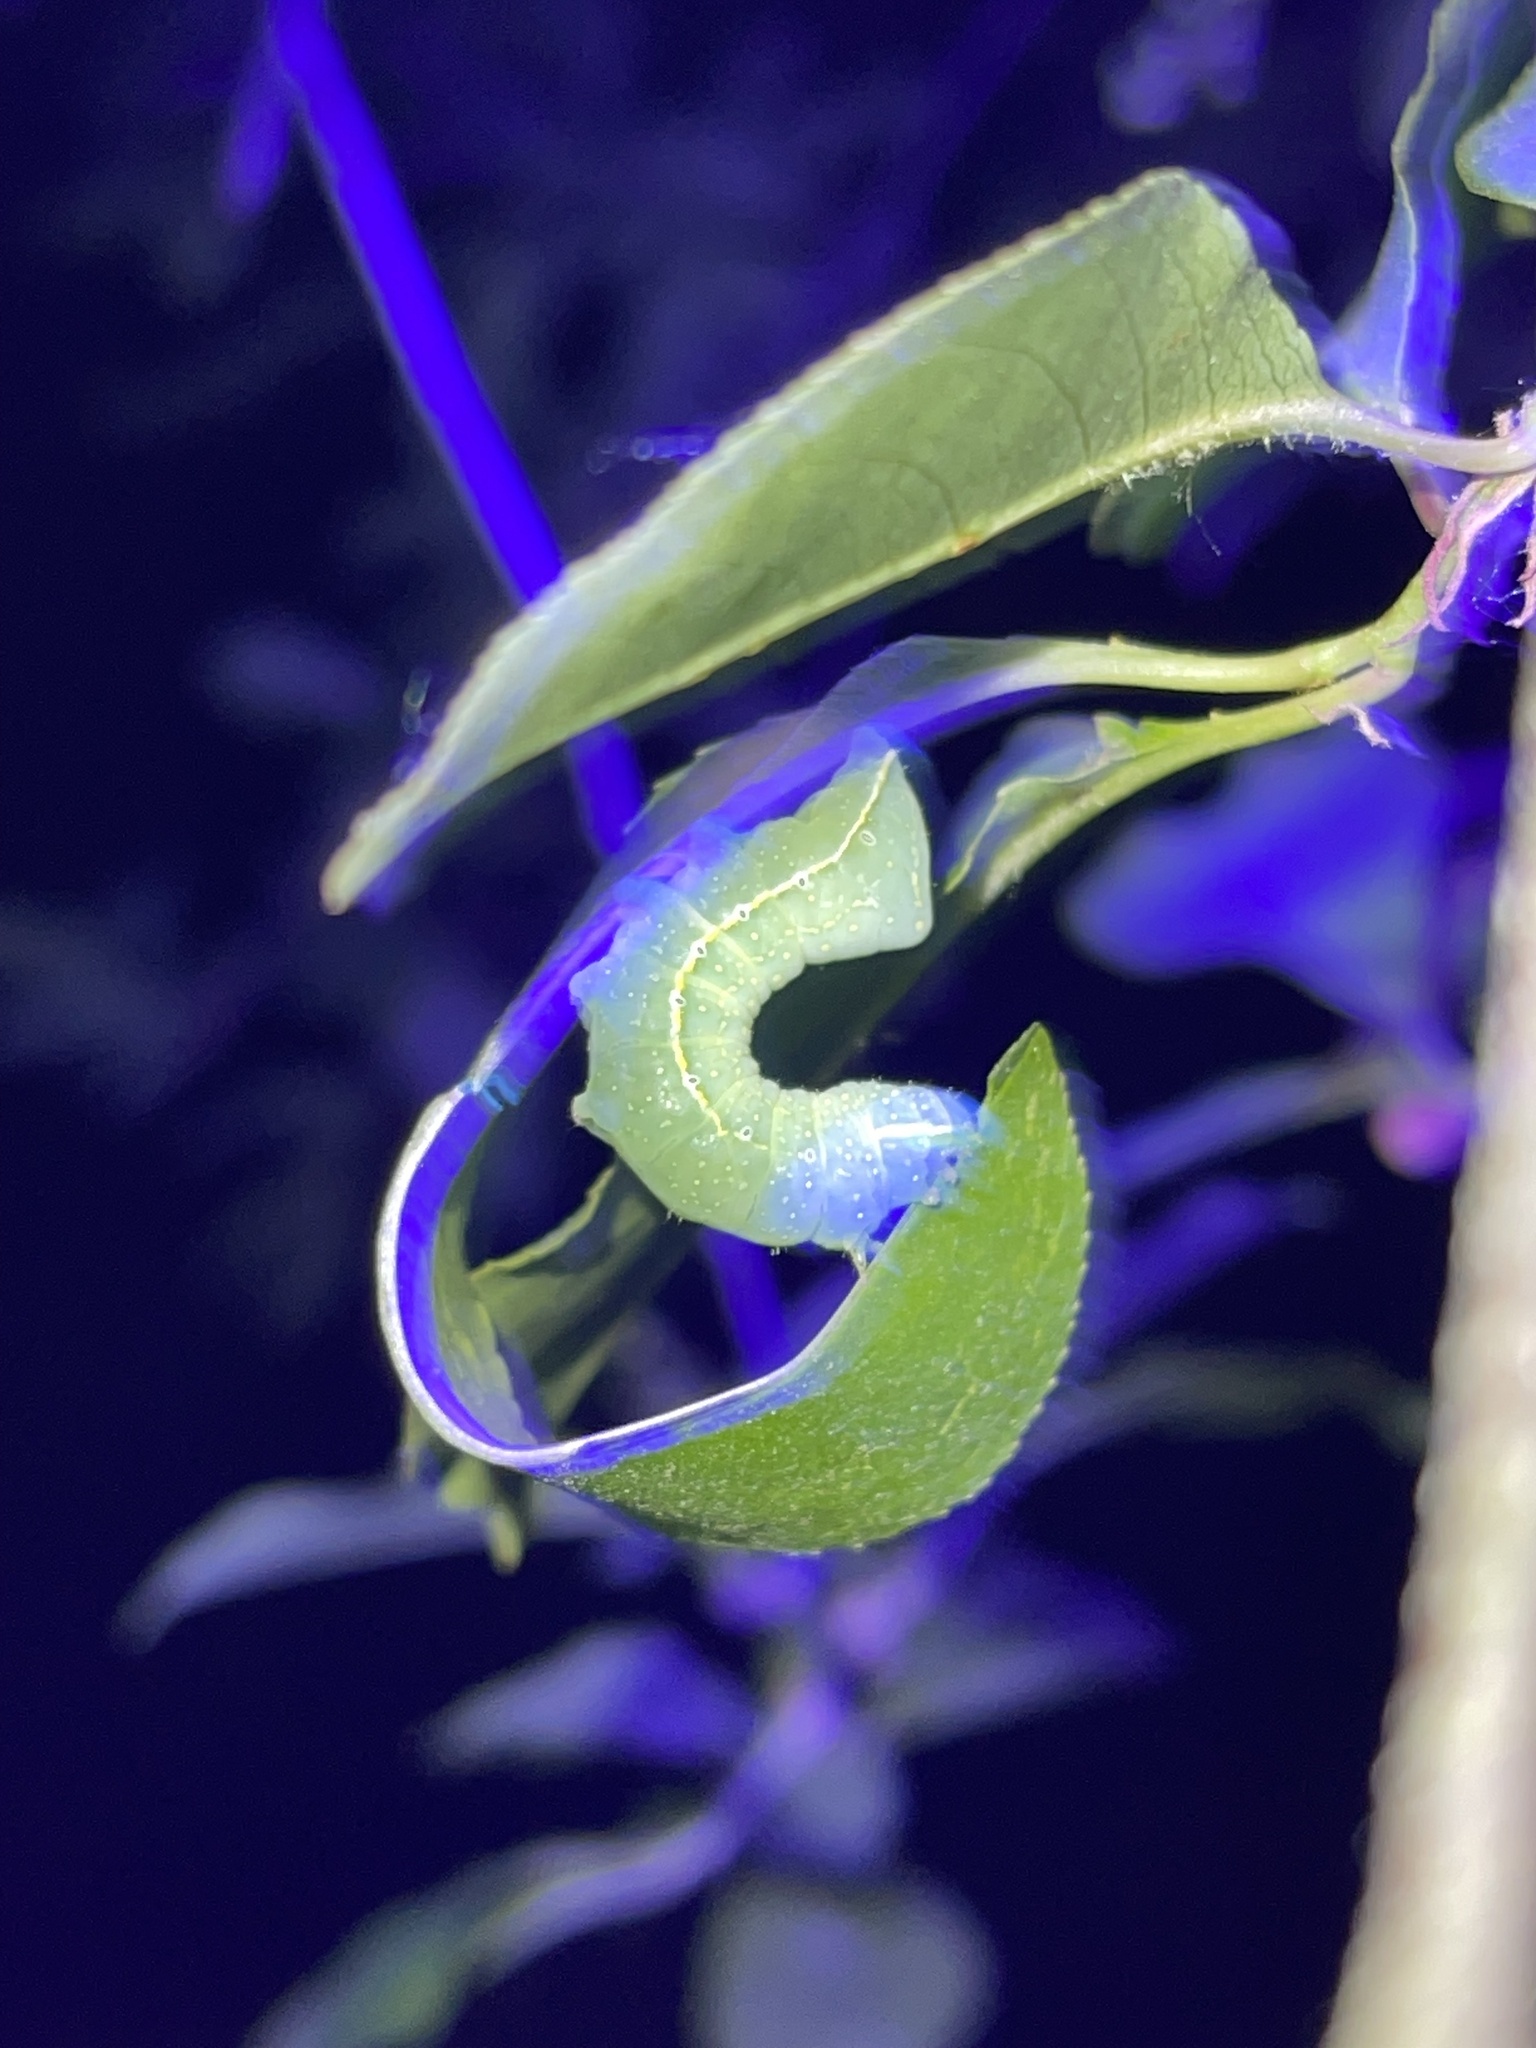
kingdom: Animalia
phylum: Arthropoda
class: Insecta
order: Lepidoptera
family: Noctuidae
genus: Amphipyra
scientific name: Amphipyra pyramidoides
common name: American copper underwing
